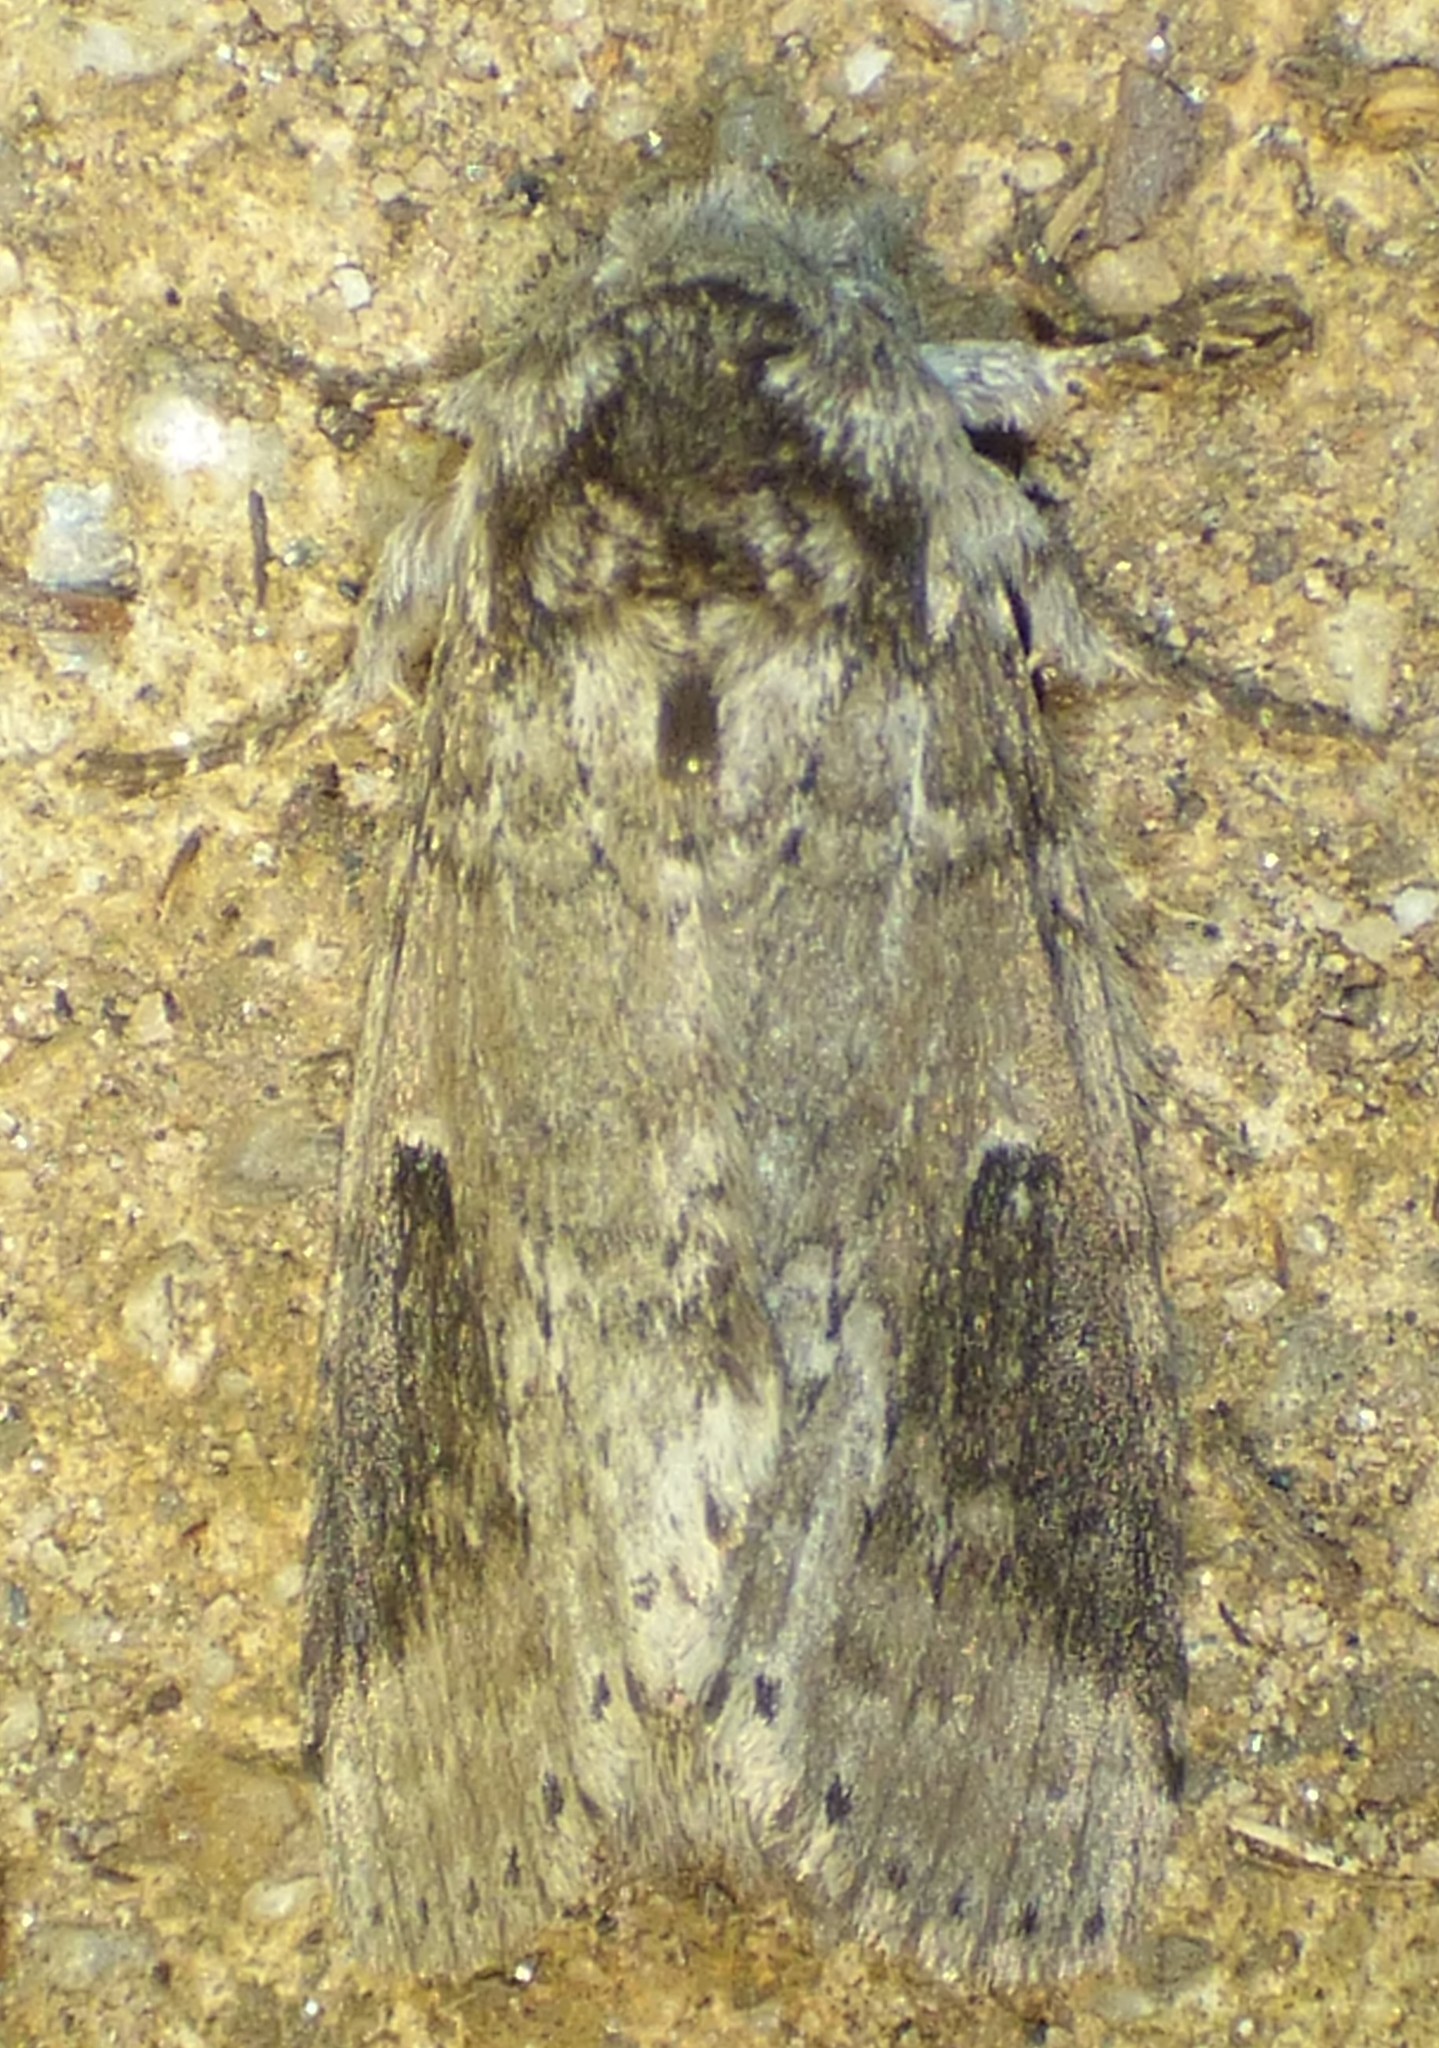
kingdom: Animalia
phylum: Arthropoda
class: Insecta
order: Lepidoptera
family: Notodontidae
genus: Lochmaeus
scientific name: Lochmaeus manteo
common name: Variable oakleaf caterpillar moth
